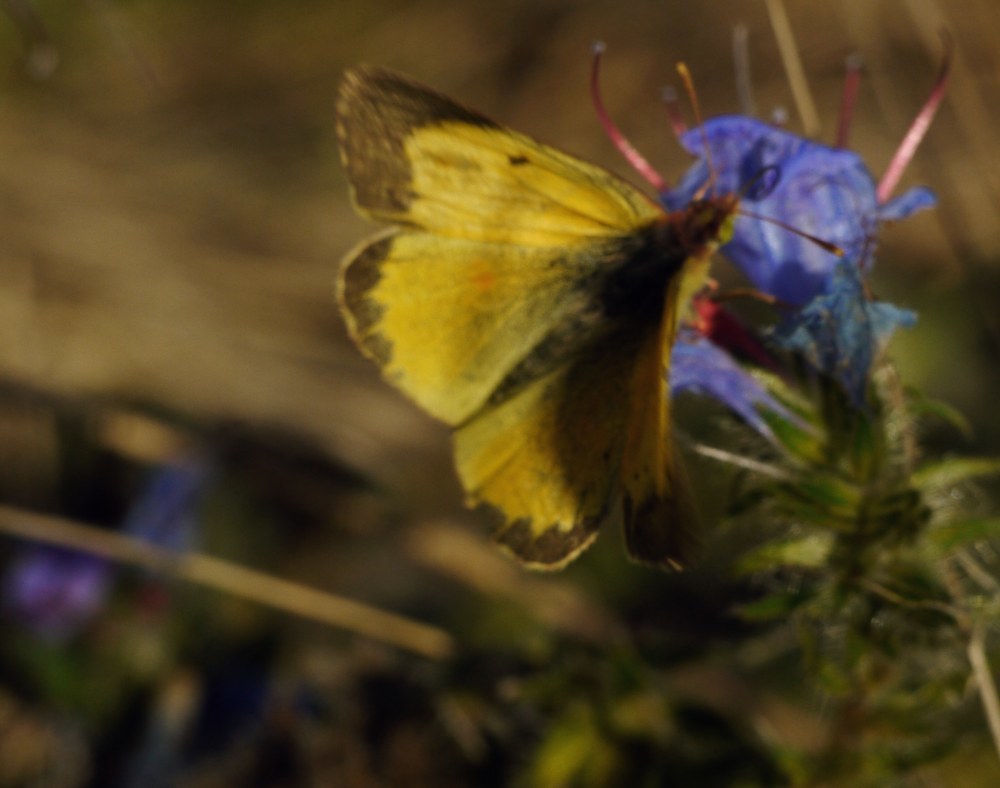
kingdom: Animalia
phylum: Arthropoda
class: Insecta
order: Lepidoptera
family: Pieridae
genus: Colias
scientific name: Colias erate
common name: Eastern pale clouded yellow
